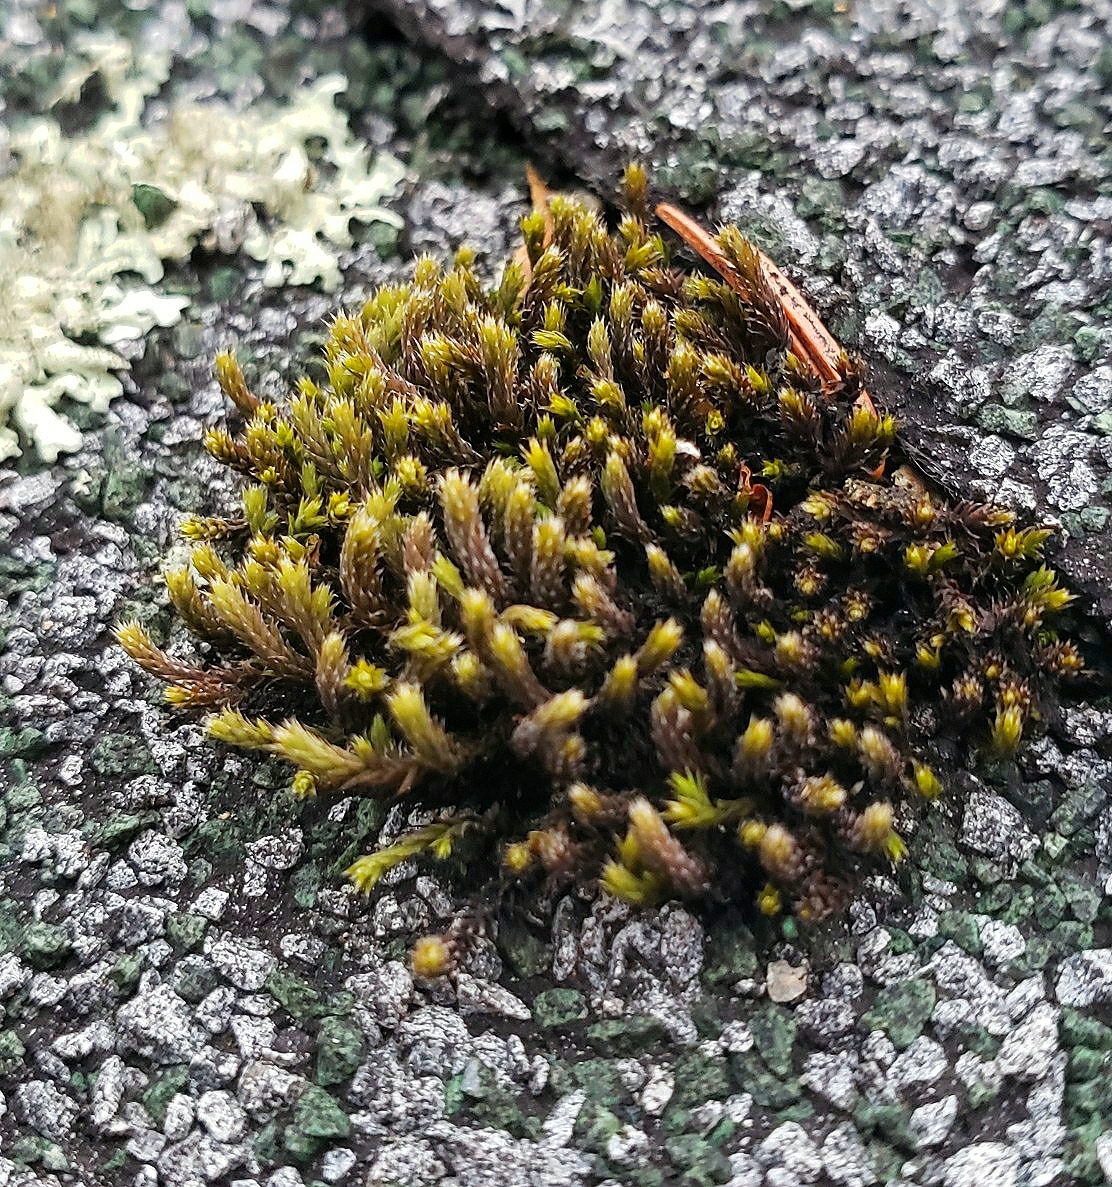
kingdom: Plantae
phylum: Bryophyta
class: Bryopsida
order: Hedwigiales
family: Hedwigiaceae
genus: Hedwigia
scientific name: Hedwigia ciliata
